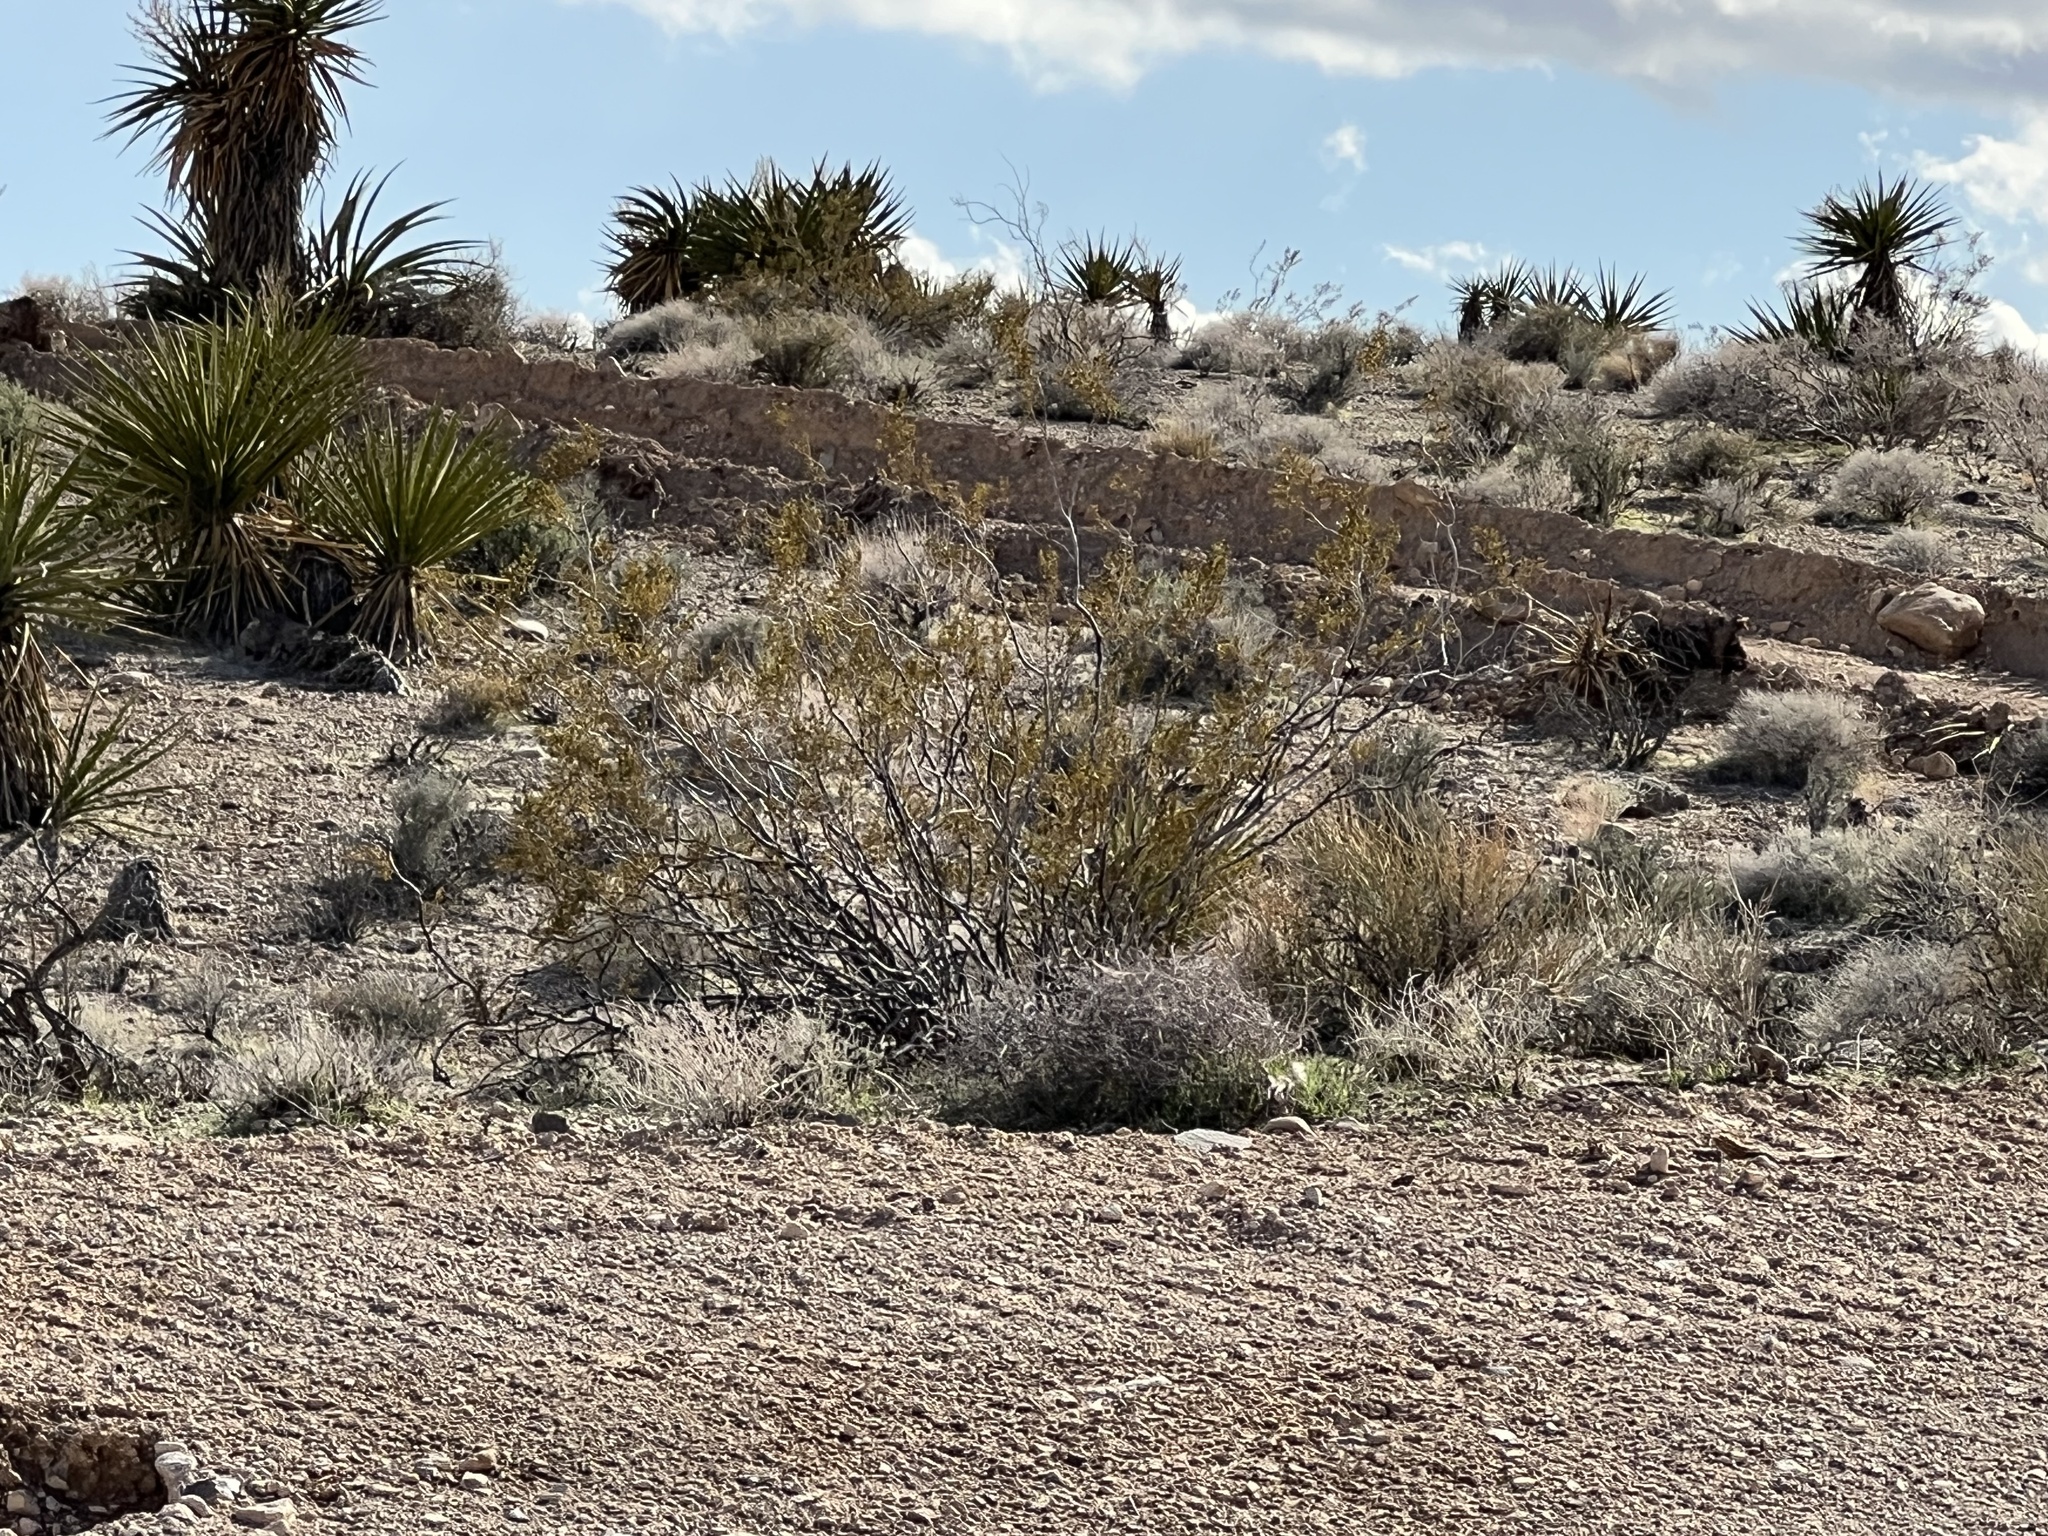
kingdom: Plantae
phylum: Tracheophyta
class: Magnoliopsida
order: Zygophyllales
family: Zygophyllaceae
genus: Larrea
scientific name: Larrea tridentata
